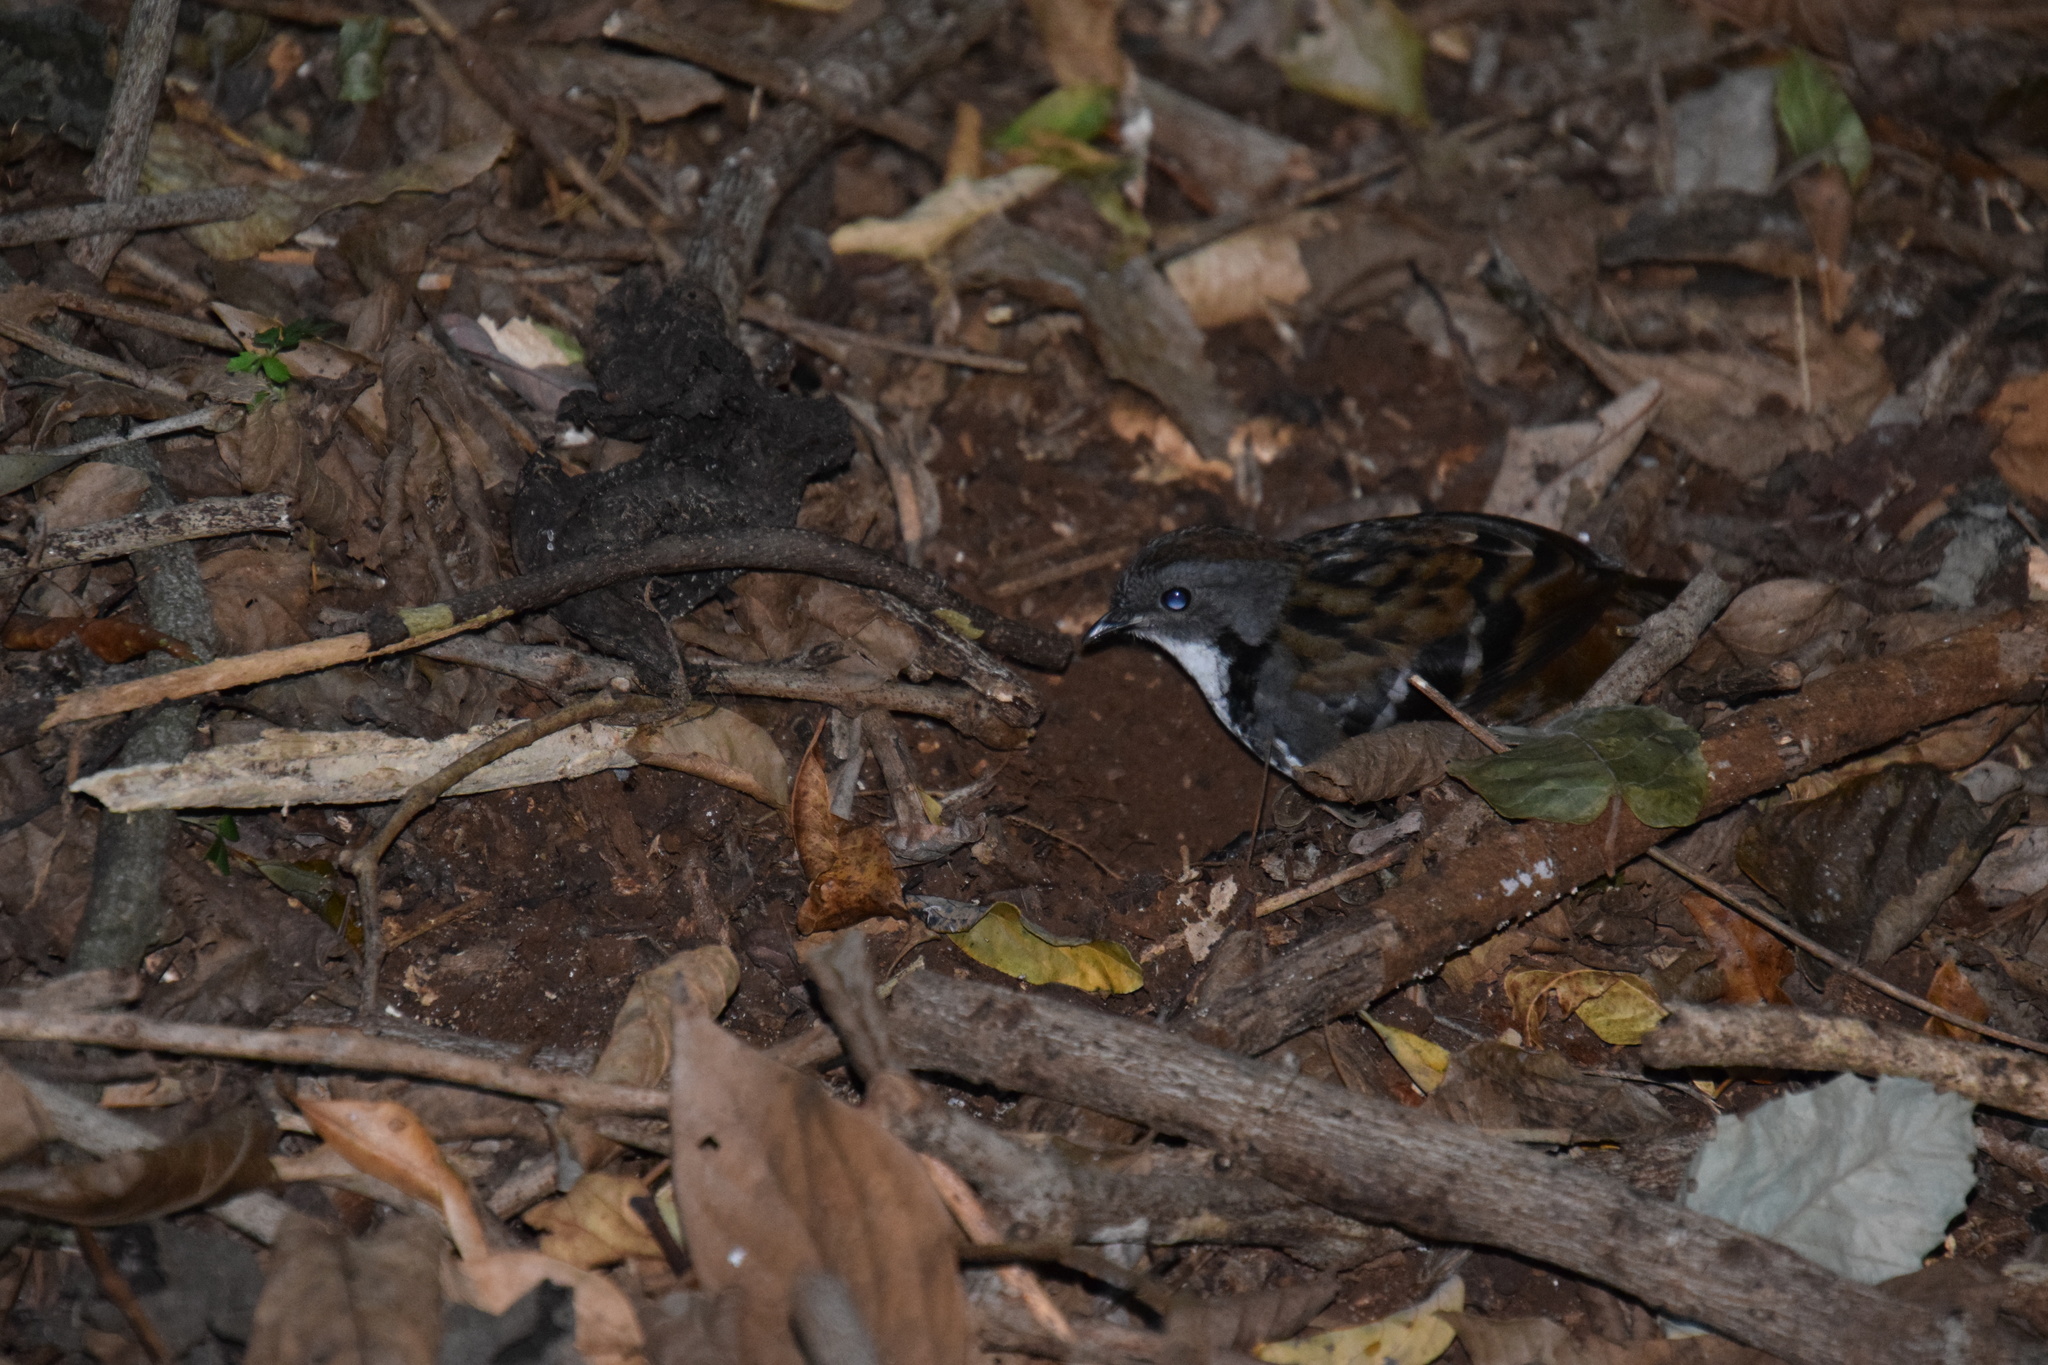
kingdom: Animalia
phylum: Chordata
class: Aves
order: Passeriformes
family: Orthonychidae
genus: Orthonyx
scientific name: Orthonyx temminckii
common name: Australian logrunner
